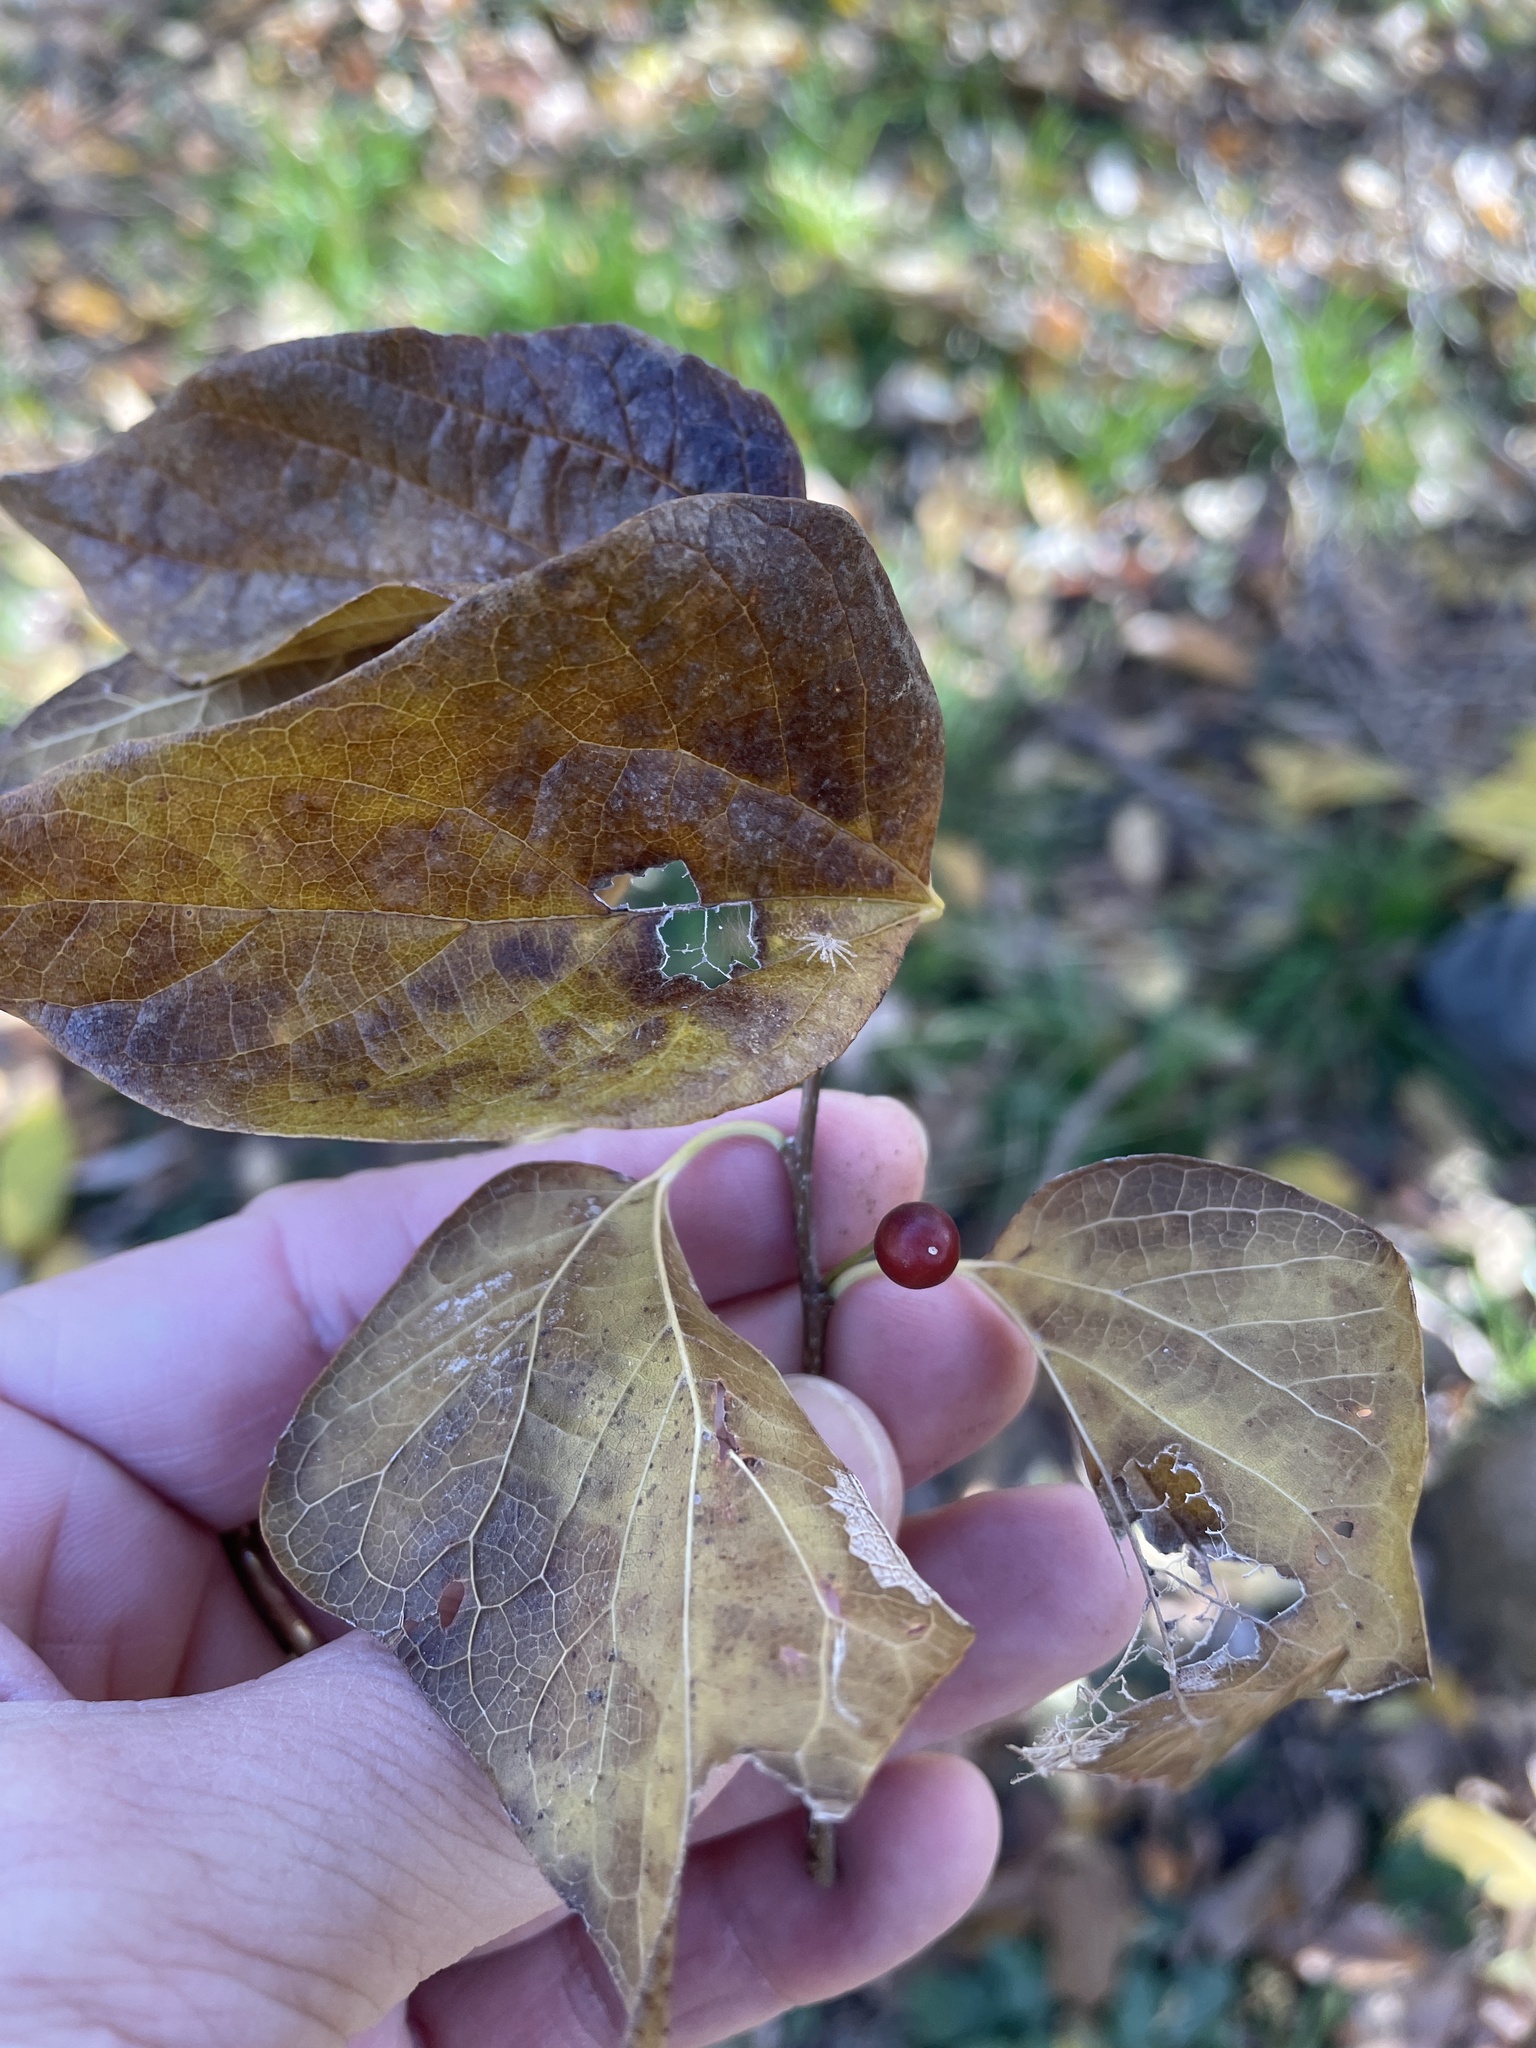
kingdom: Plantae
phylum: Tracheophyta
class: Magnoliopsida
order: Rosales
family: Cannabaceae
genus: Celtis
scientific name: Celtis laevigata
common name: Sugarberry
